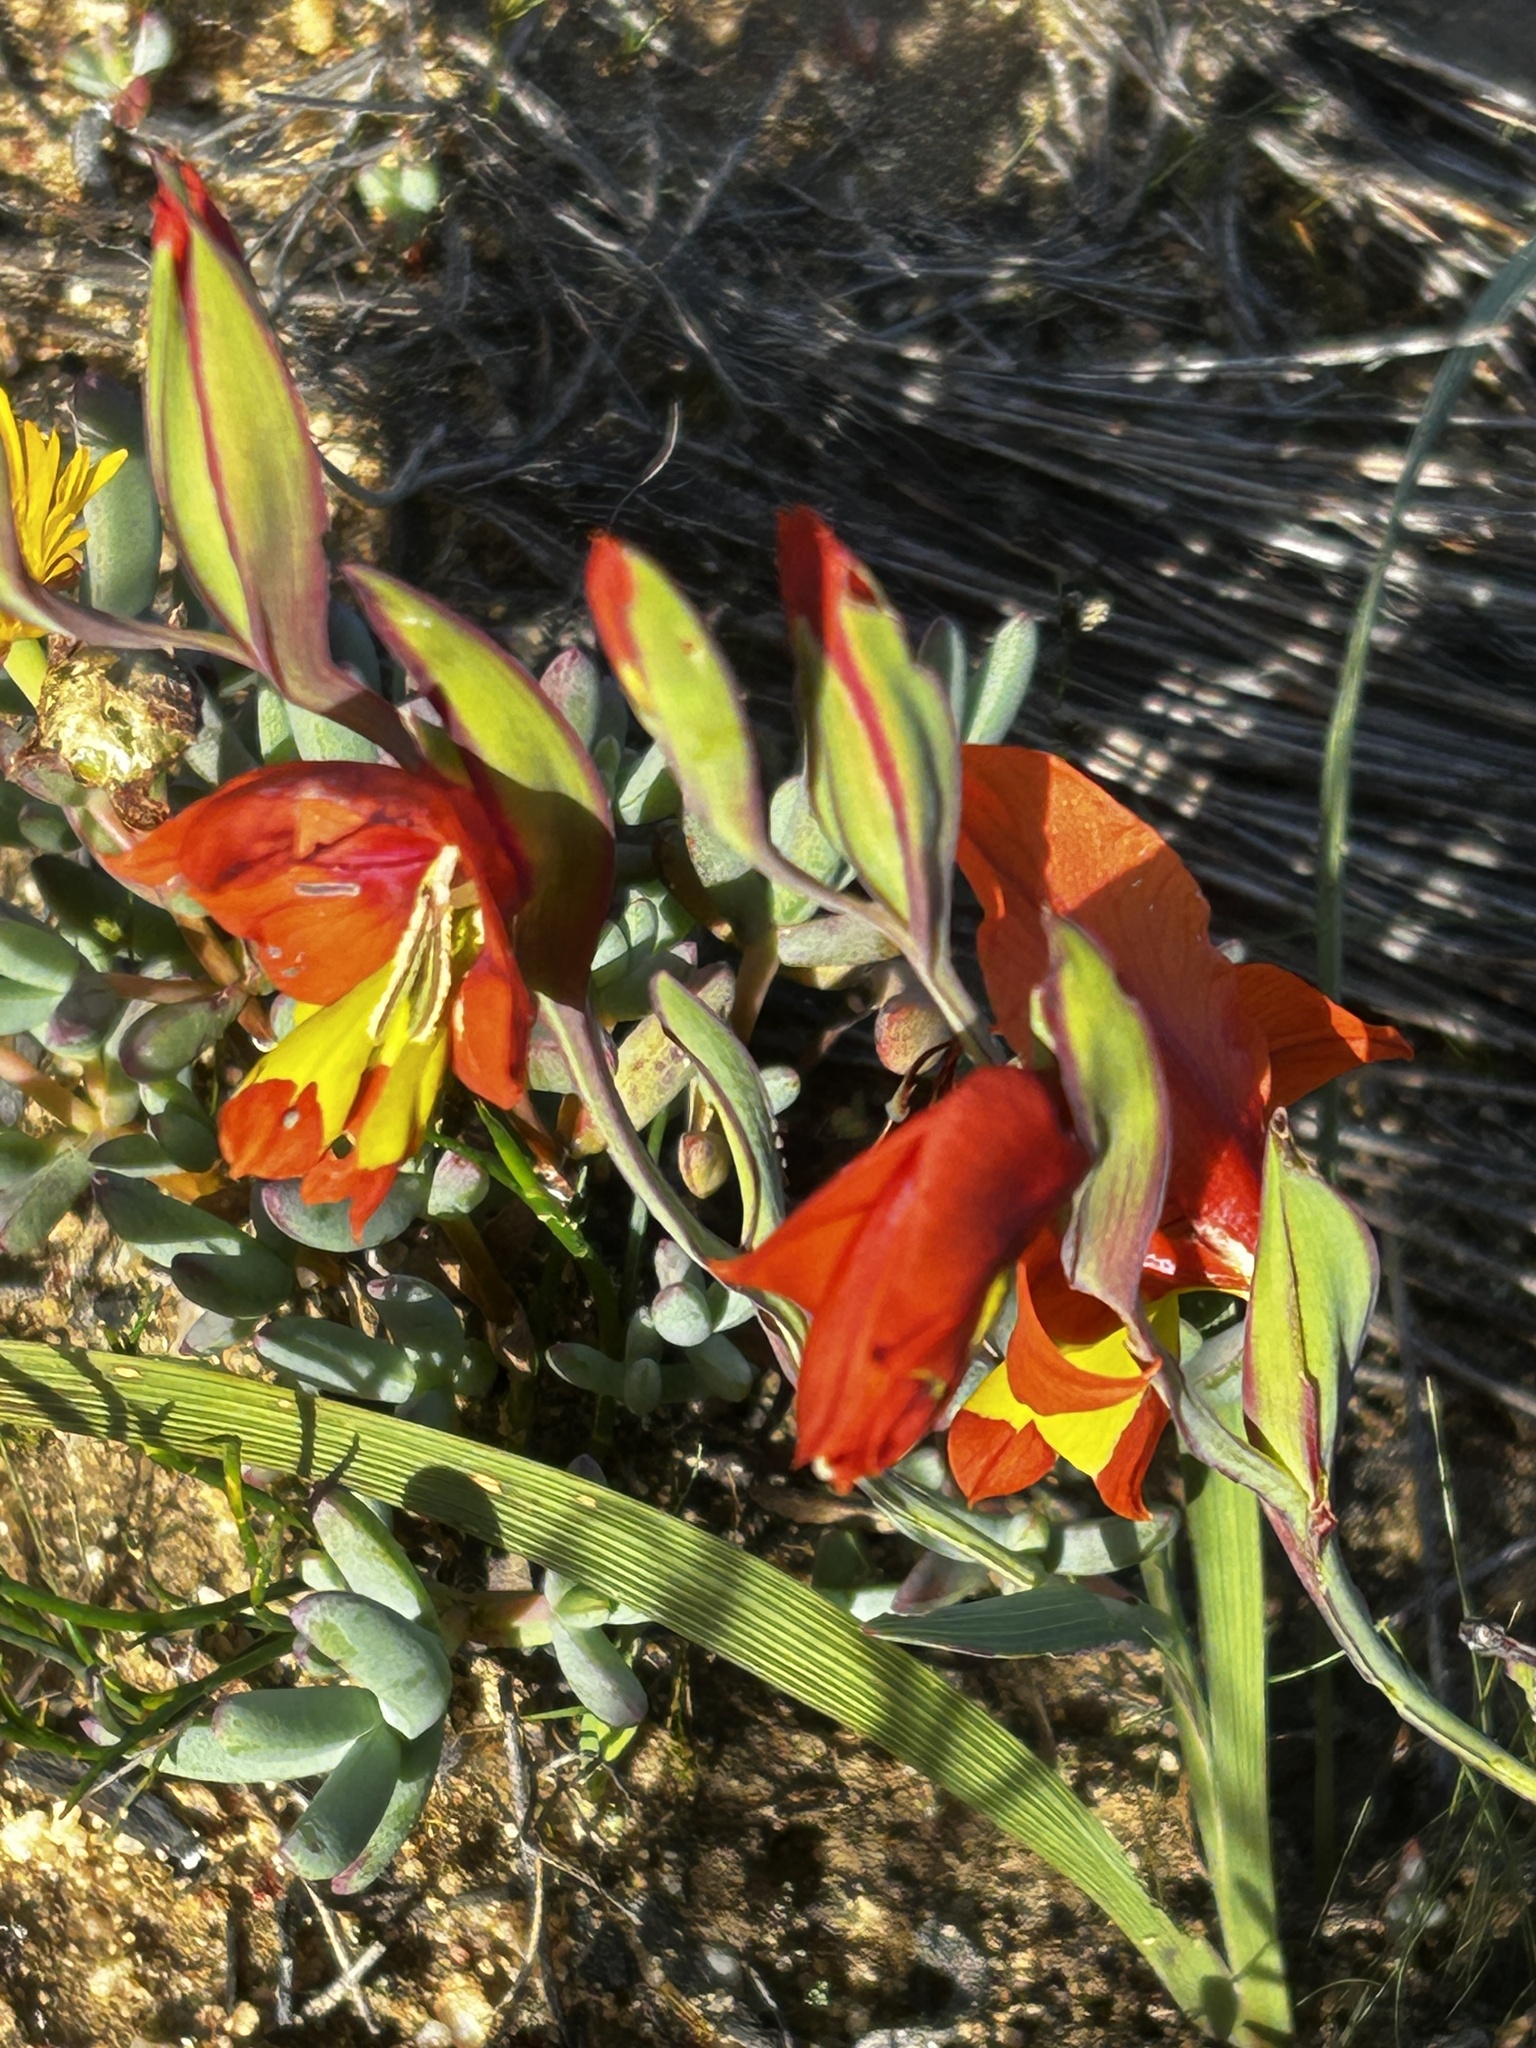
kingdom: Plantae
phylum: Tracheophyta
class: Liliopsida
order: Asparagales
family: Iridaceae
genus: Gladiolus
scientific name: Gladiolus alatus
